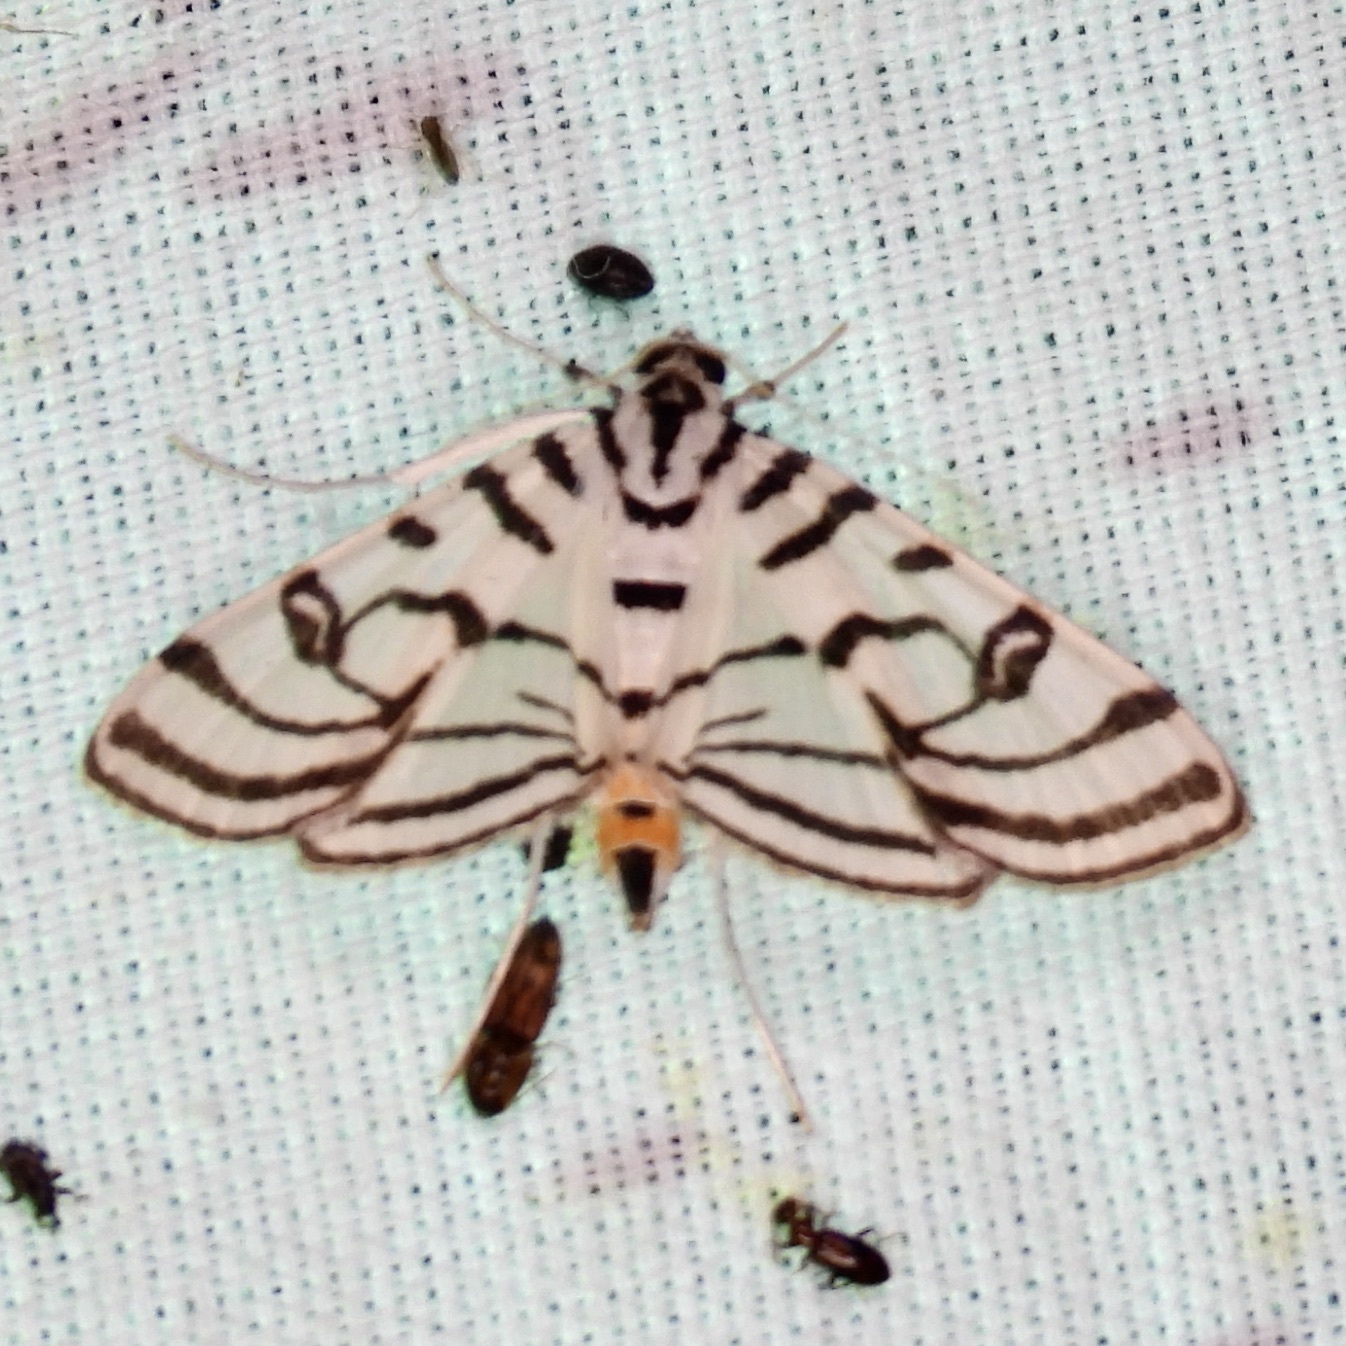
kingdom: Animalia
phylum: Arthropoda
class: Insecta
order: Lepidoptera
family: Crambidae
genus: Conchylodes
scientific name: Conchylodes ovulalis
